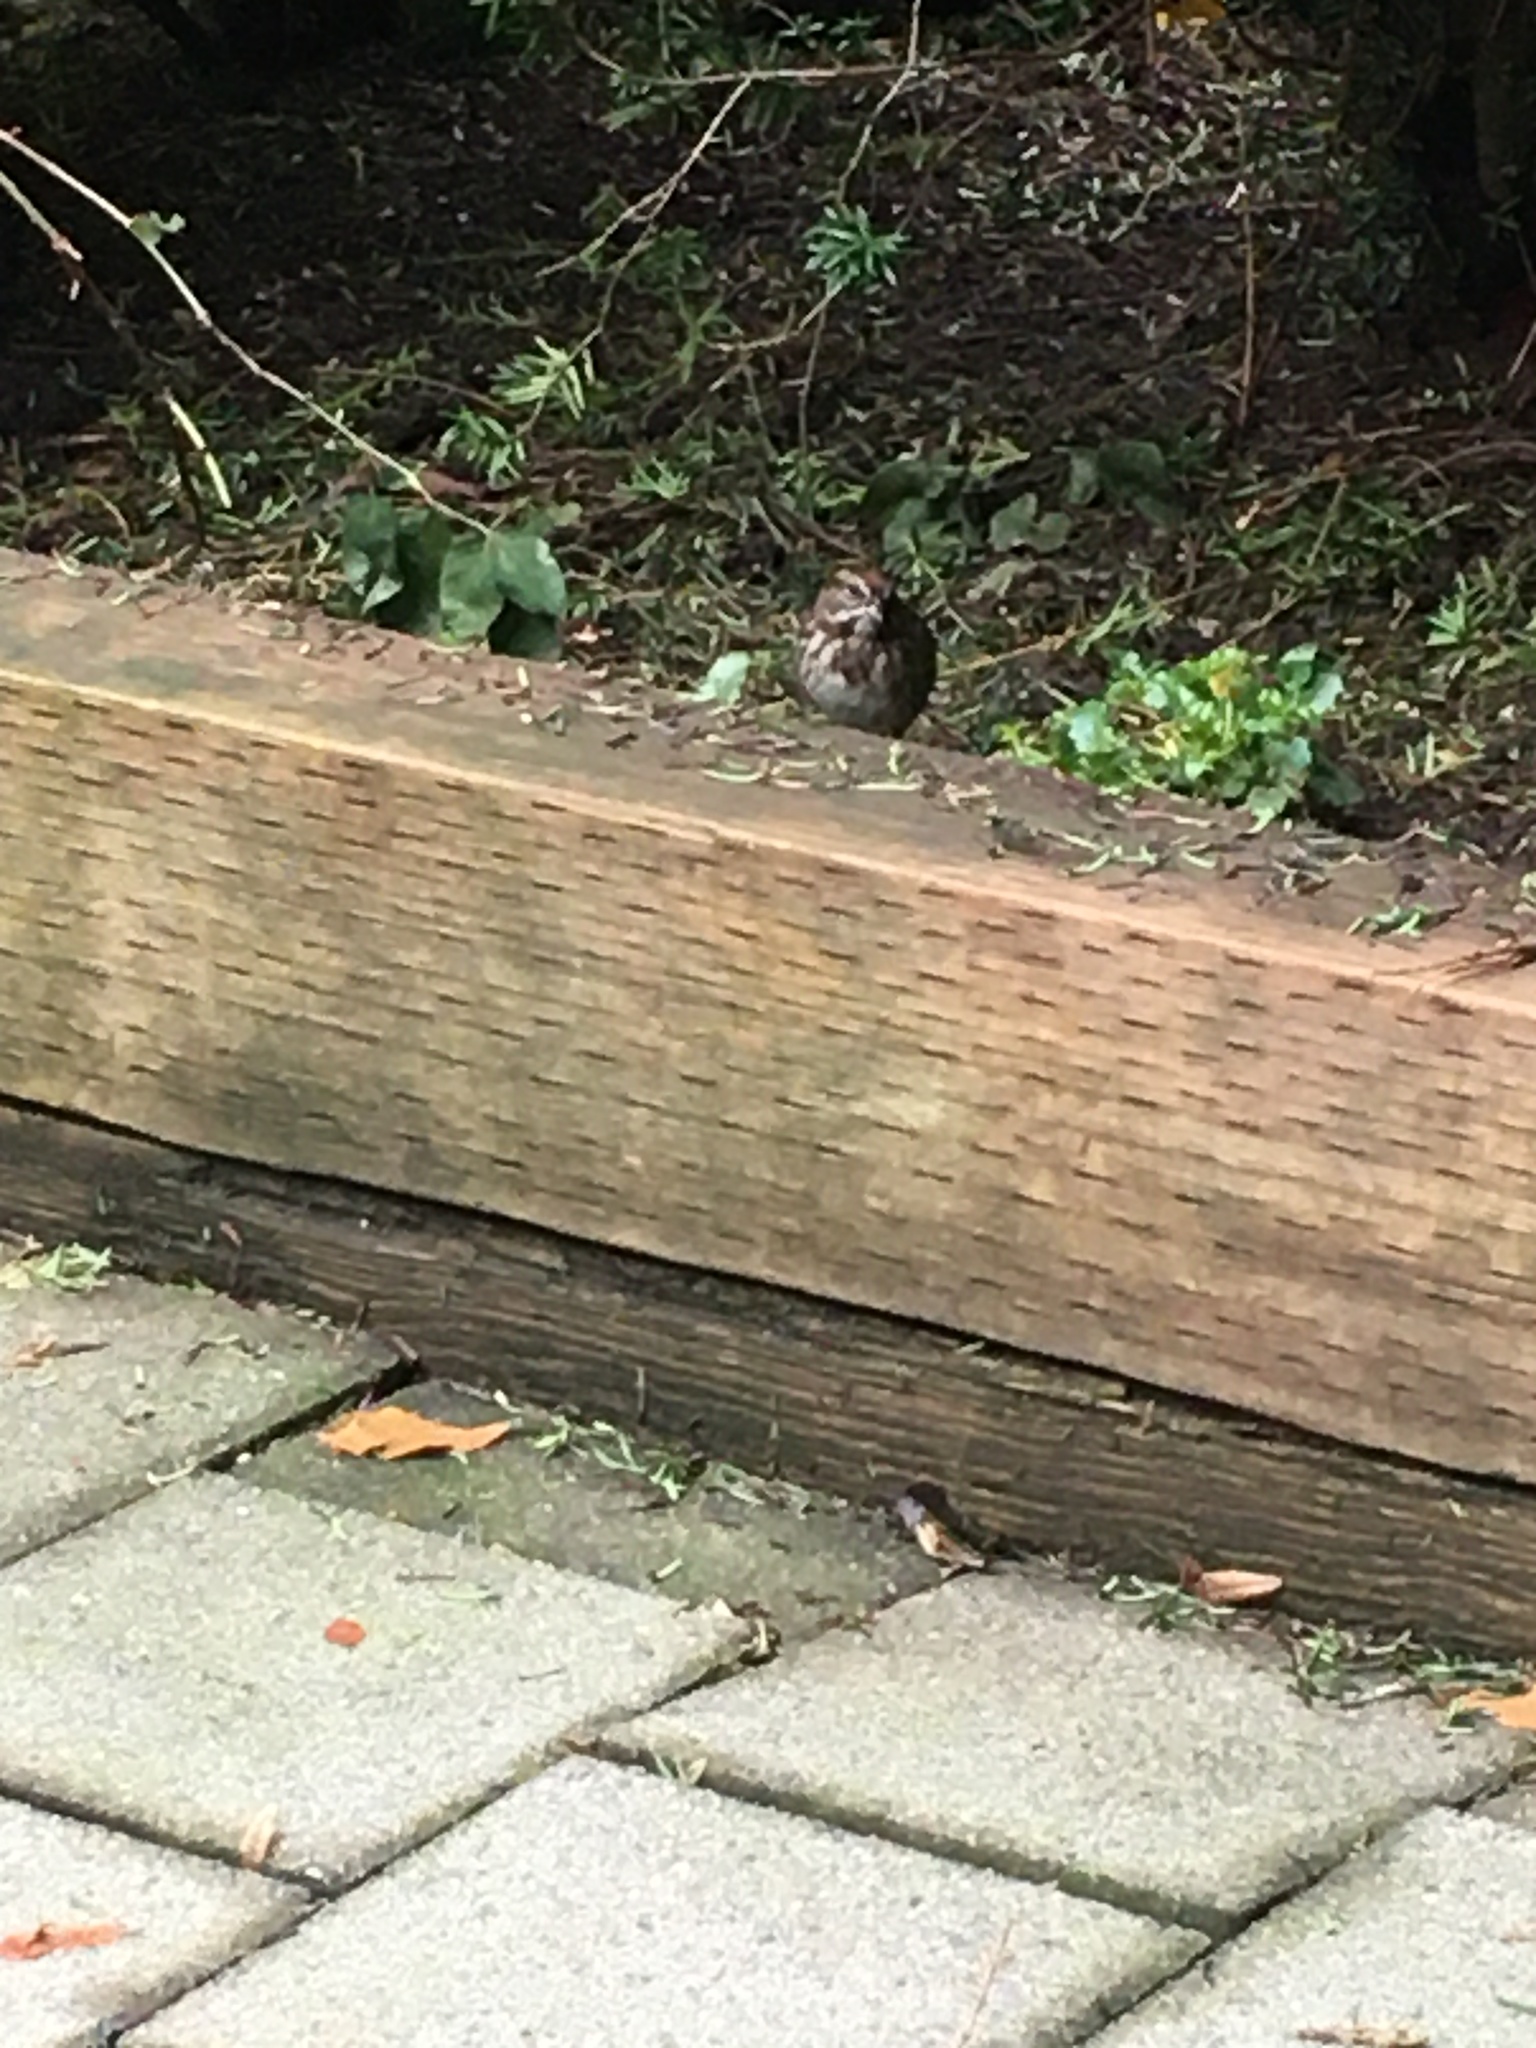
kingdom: Animalia
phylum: Chordata
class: Aves
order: Passeriformes
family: Passerellidae
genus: Melospiza
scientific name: Melospiza melodia
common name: Song sparrow
